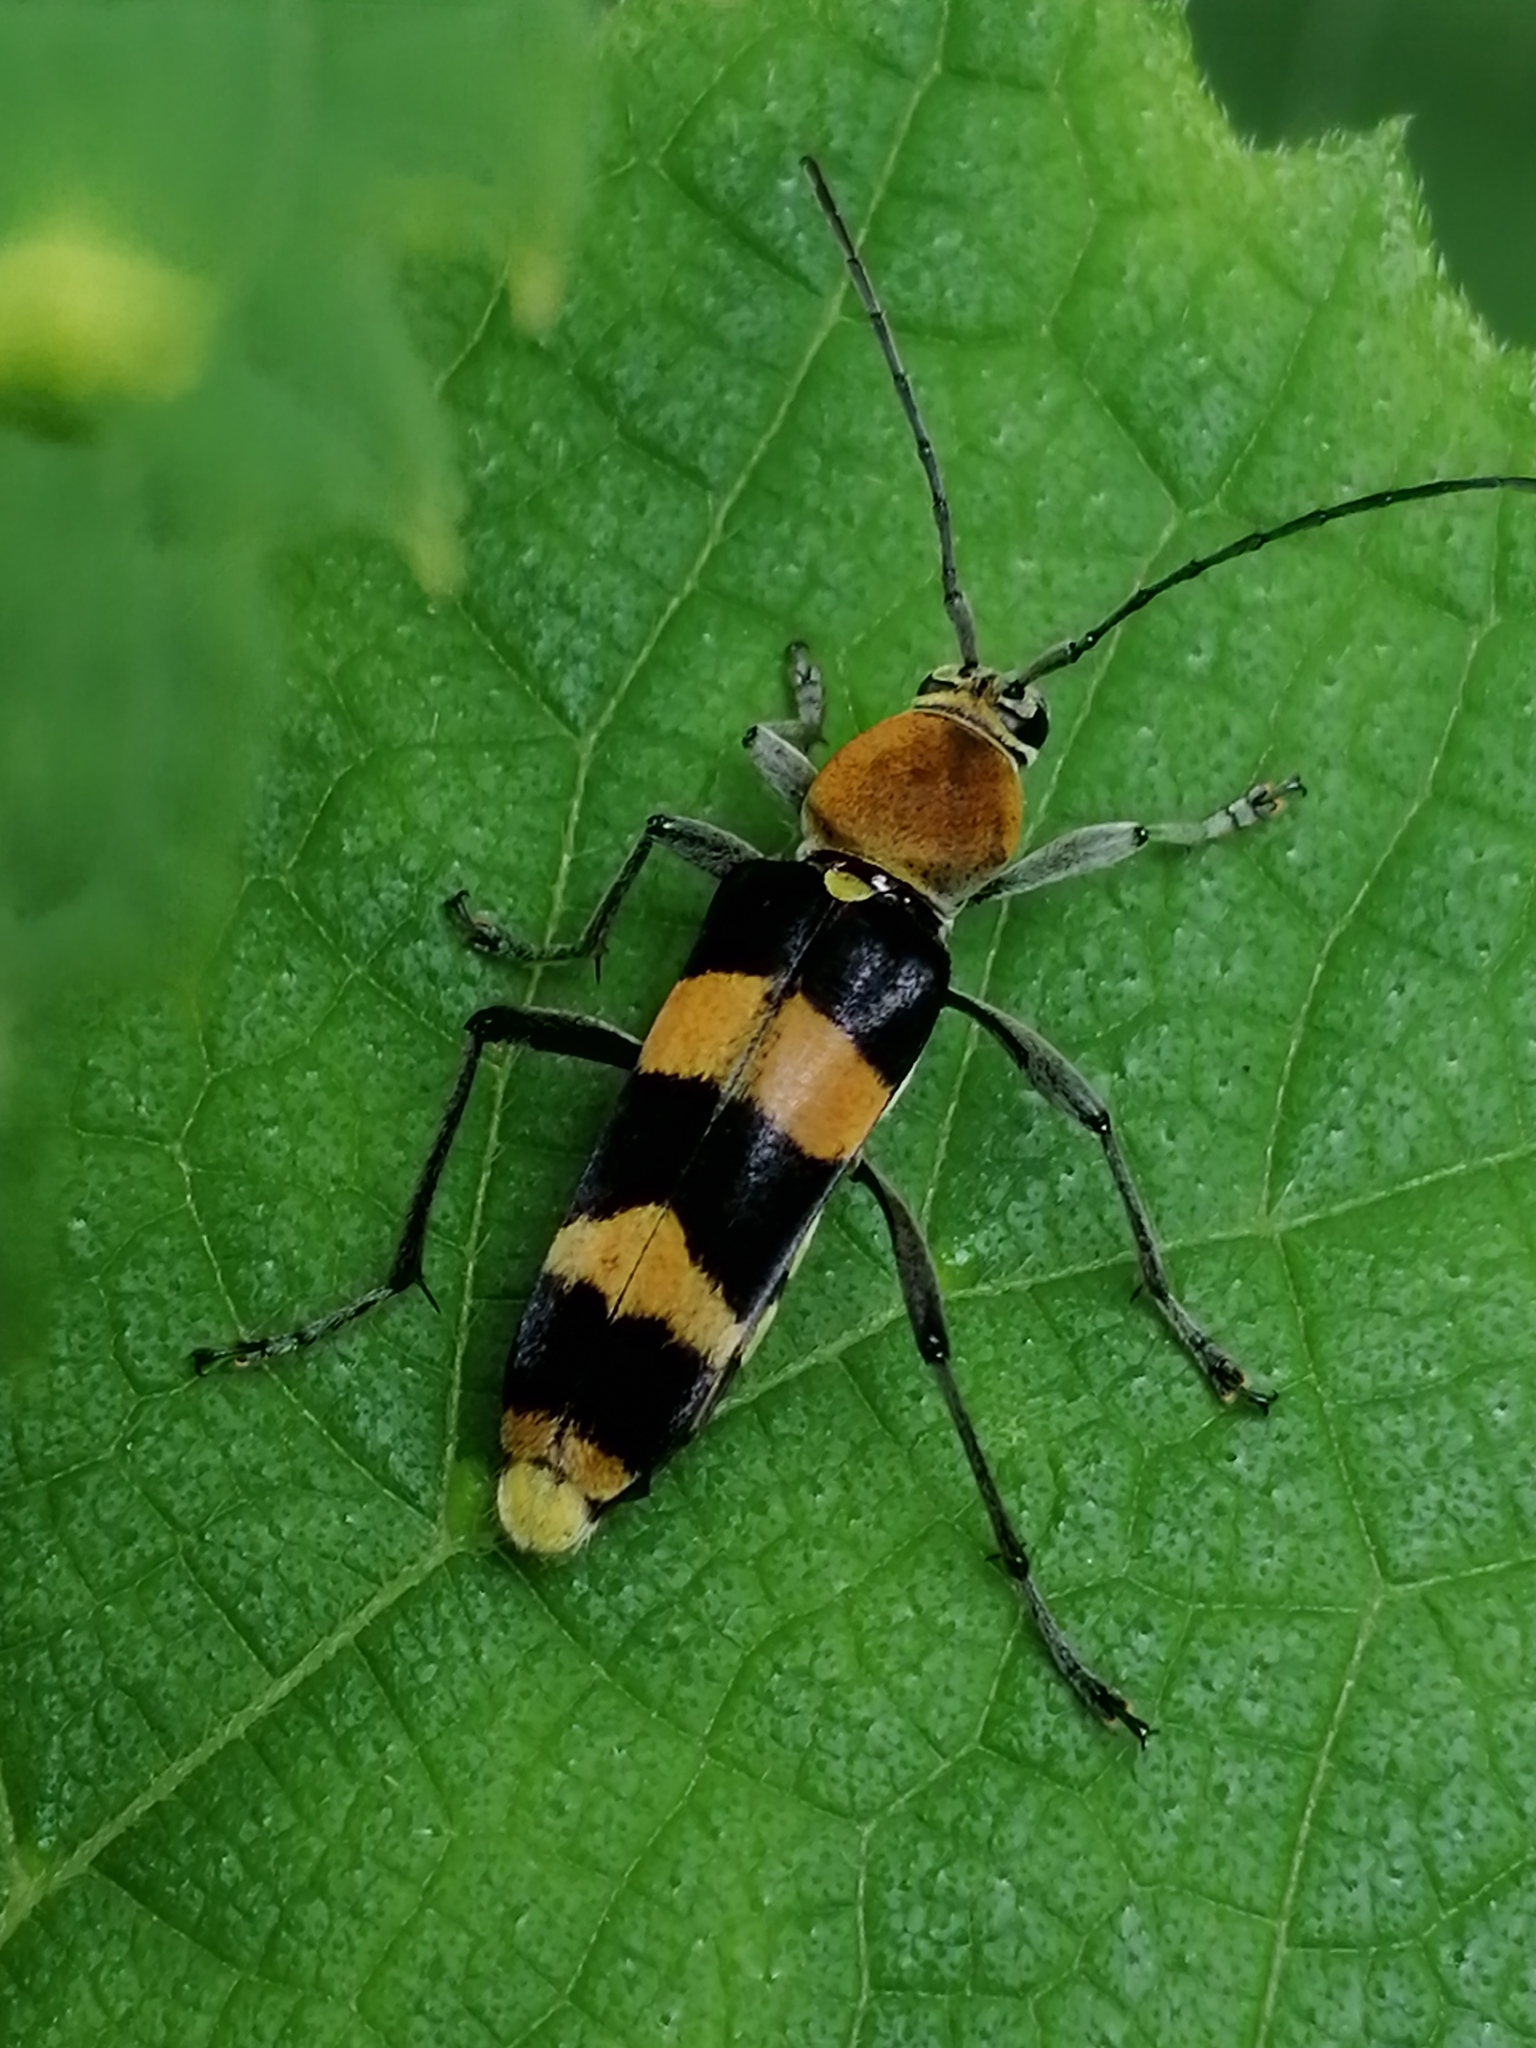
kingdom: Animalia
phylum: Arthropoda
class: Insecta
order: Coleoptera
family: Cerambycidae
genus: Tanyochraethes
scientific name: Tanyochraethes ochrozona
